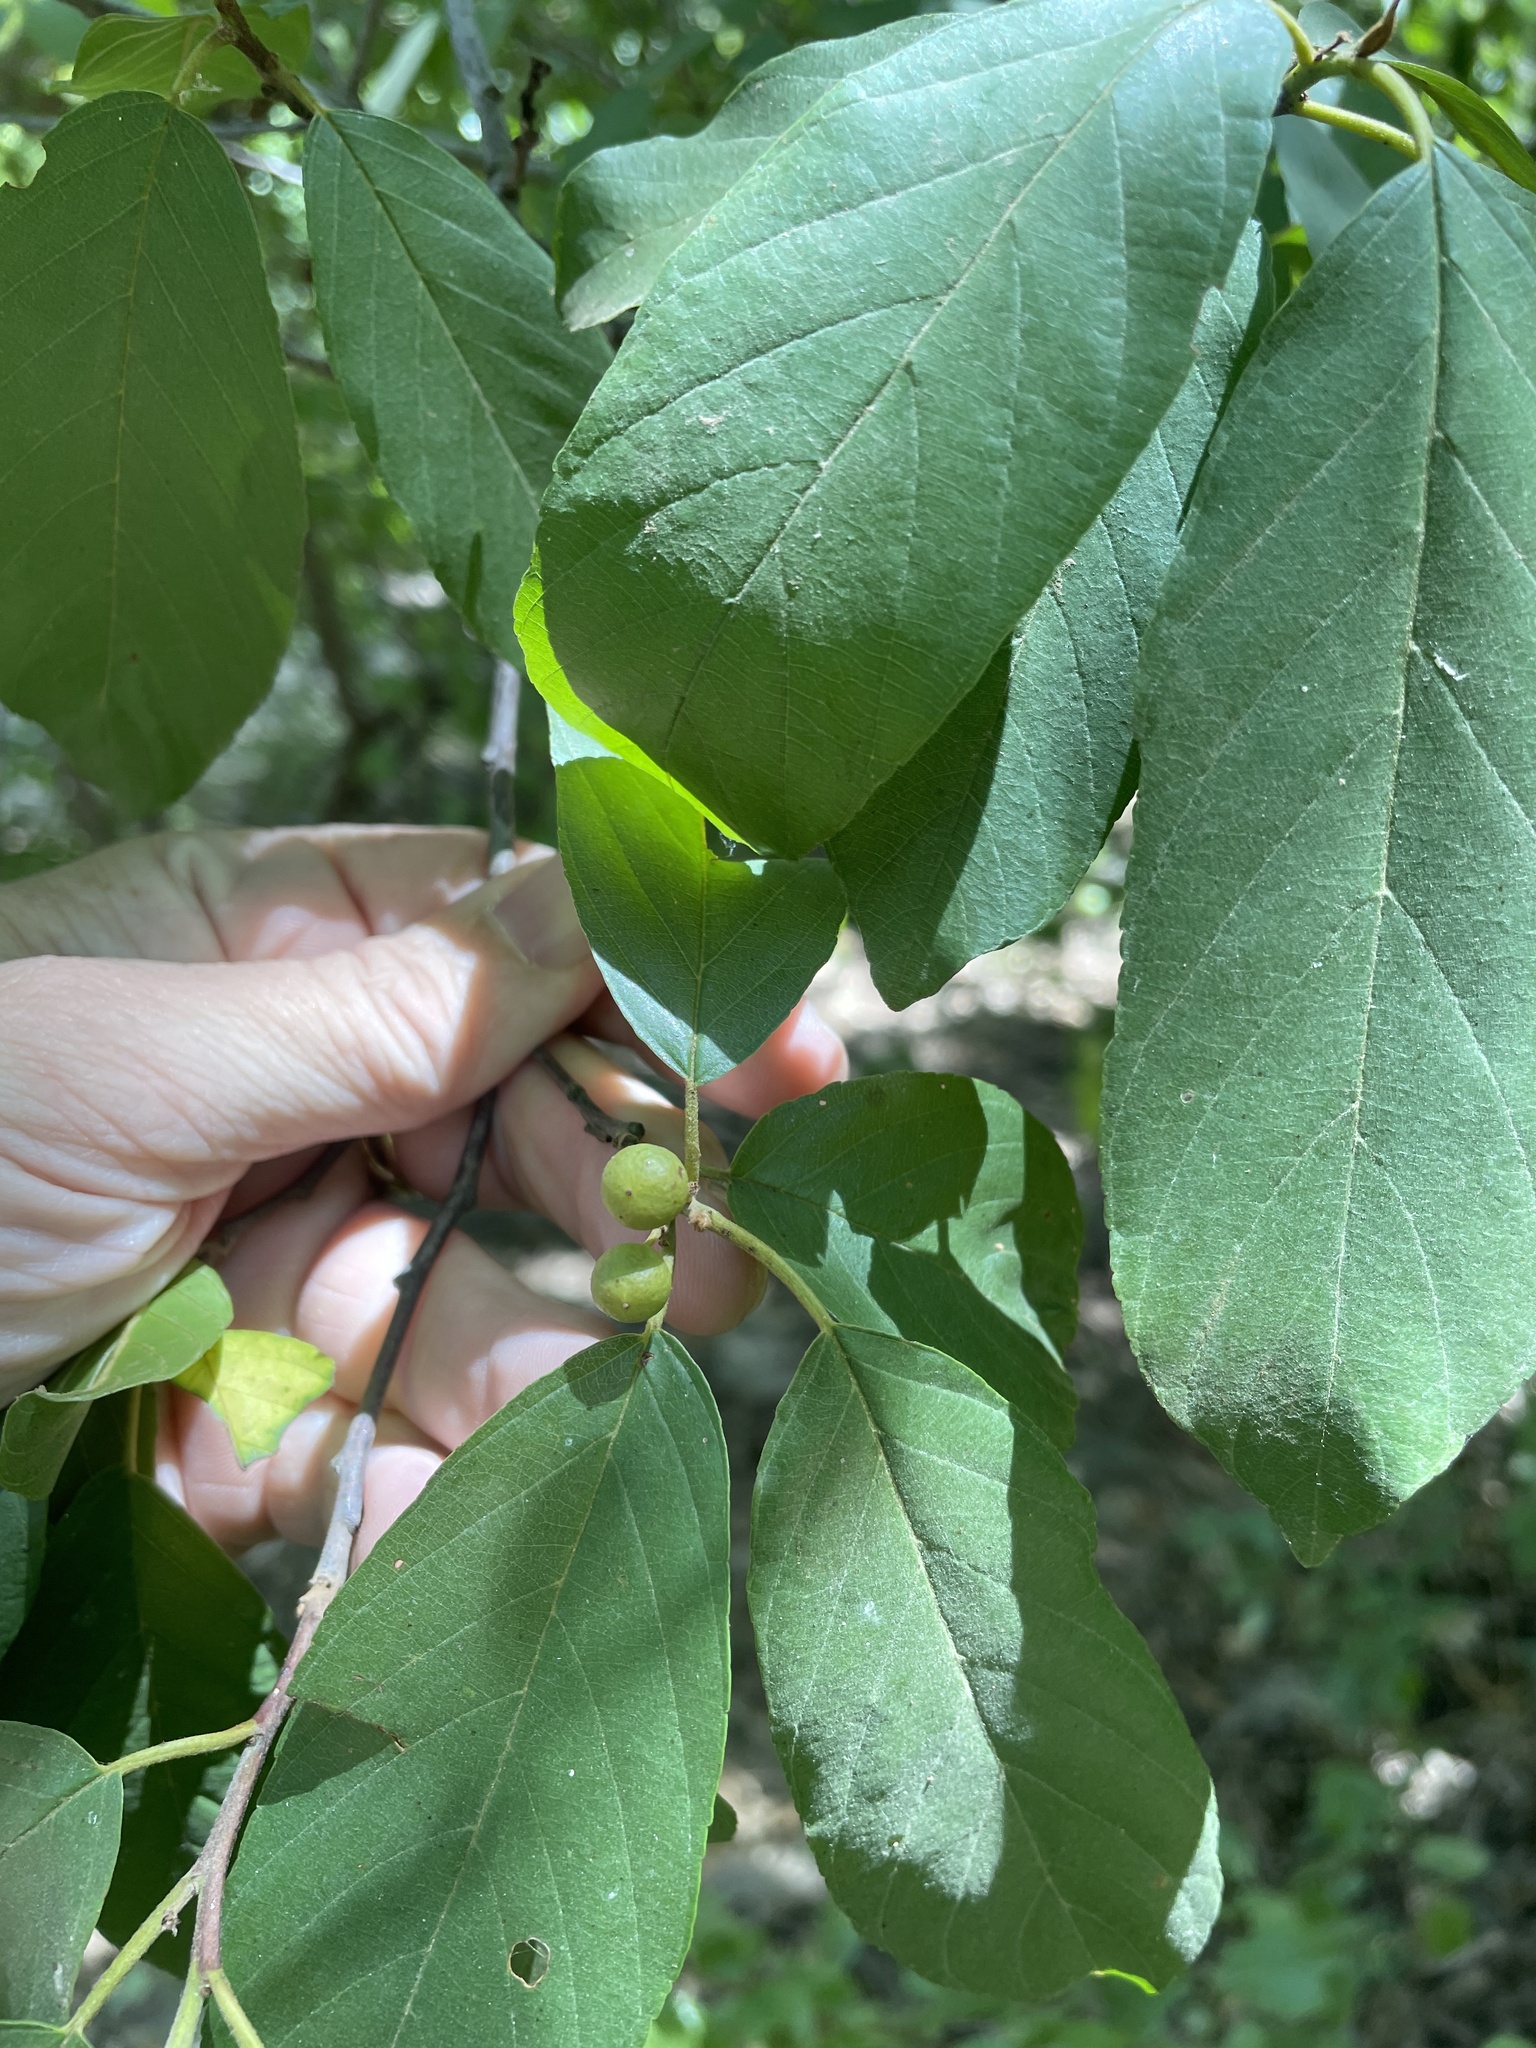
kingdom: Plantae
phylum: Tracheophyta
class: Magnoliopsida
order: Rosales
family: Rhamnaceae
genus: Frangula
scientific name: Frangula caroliniana
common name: Carolina buckthorn
